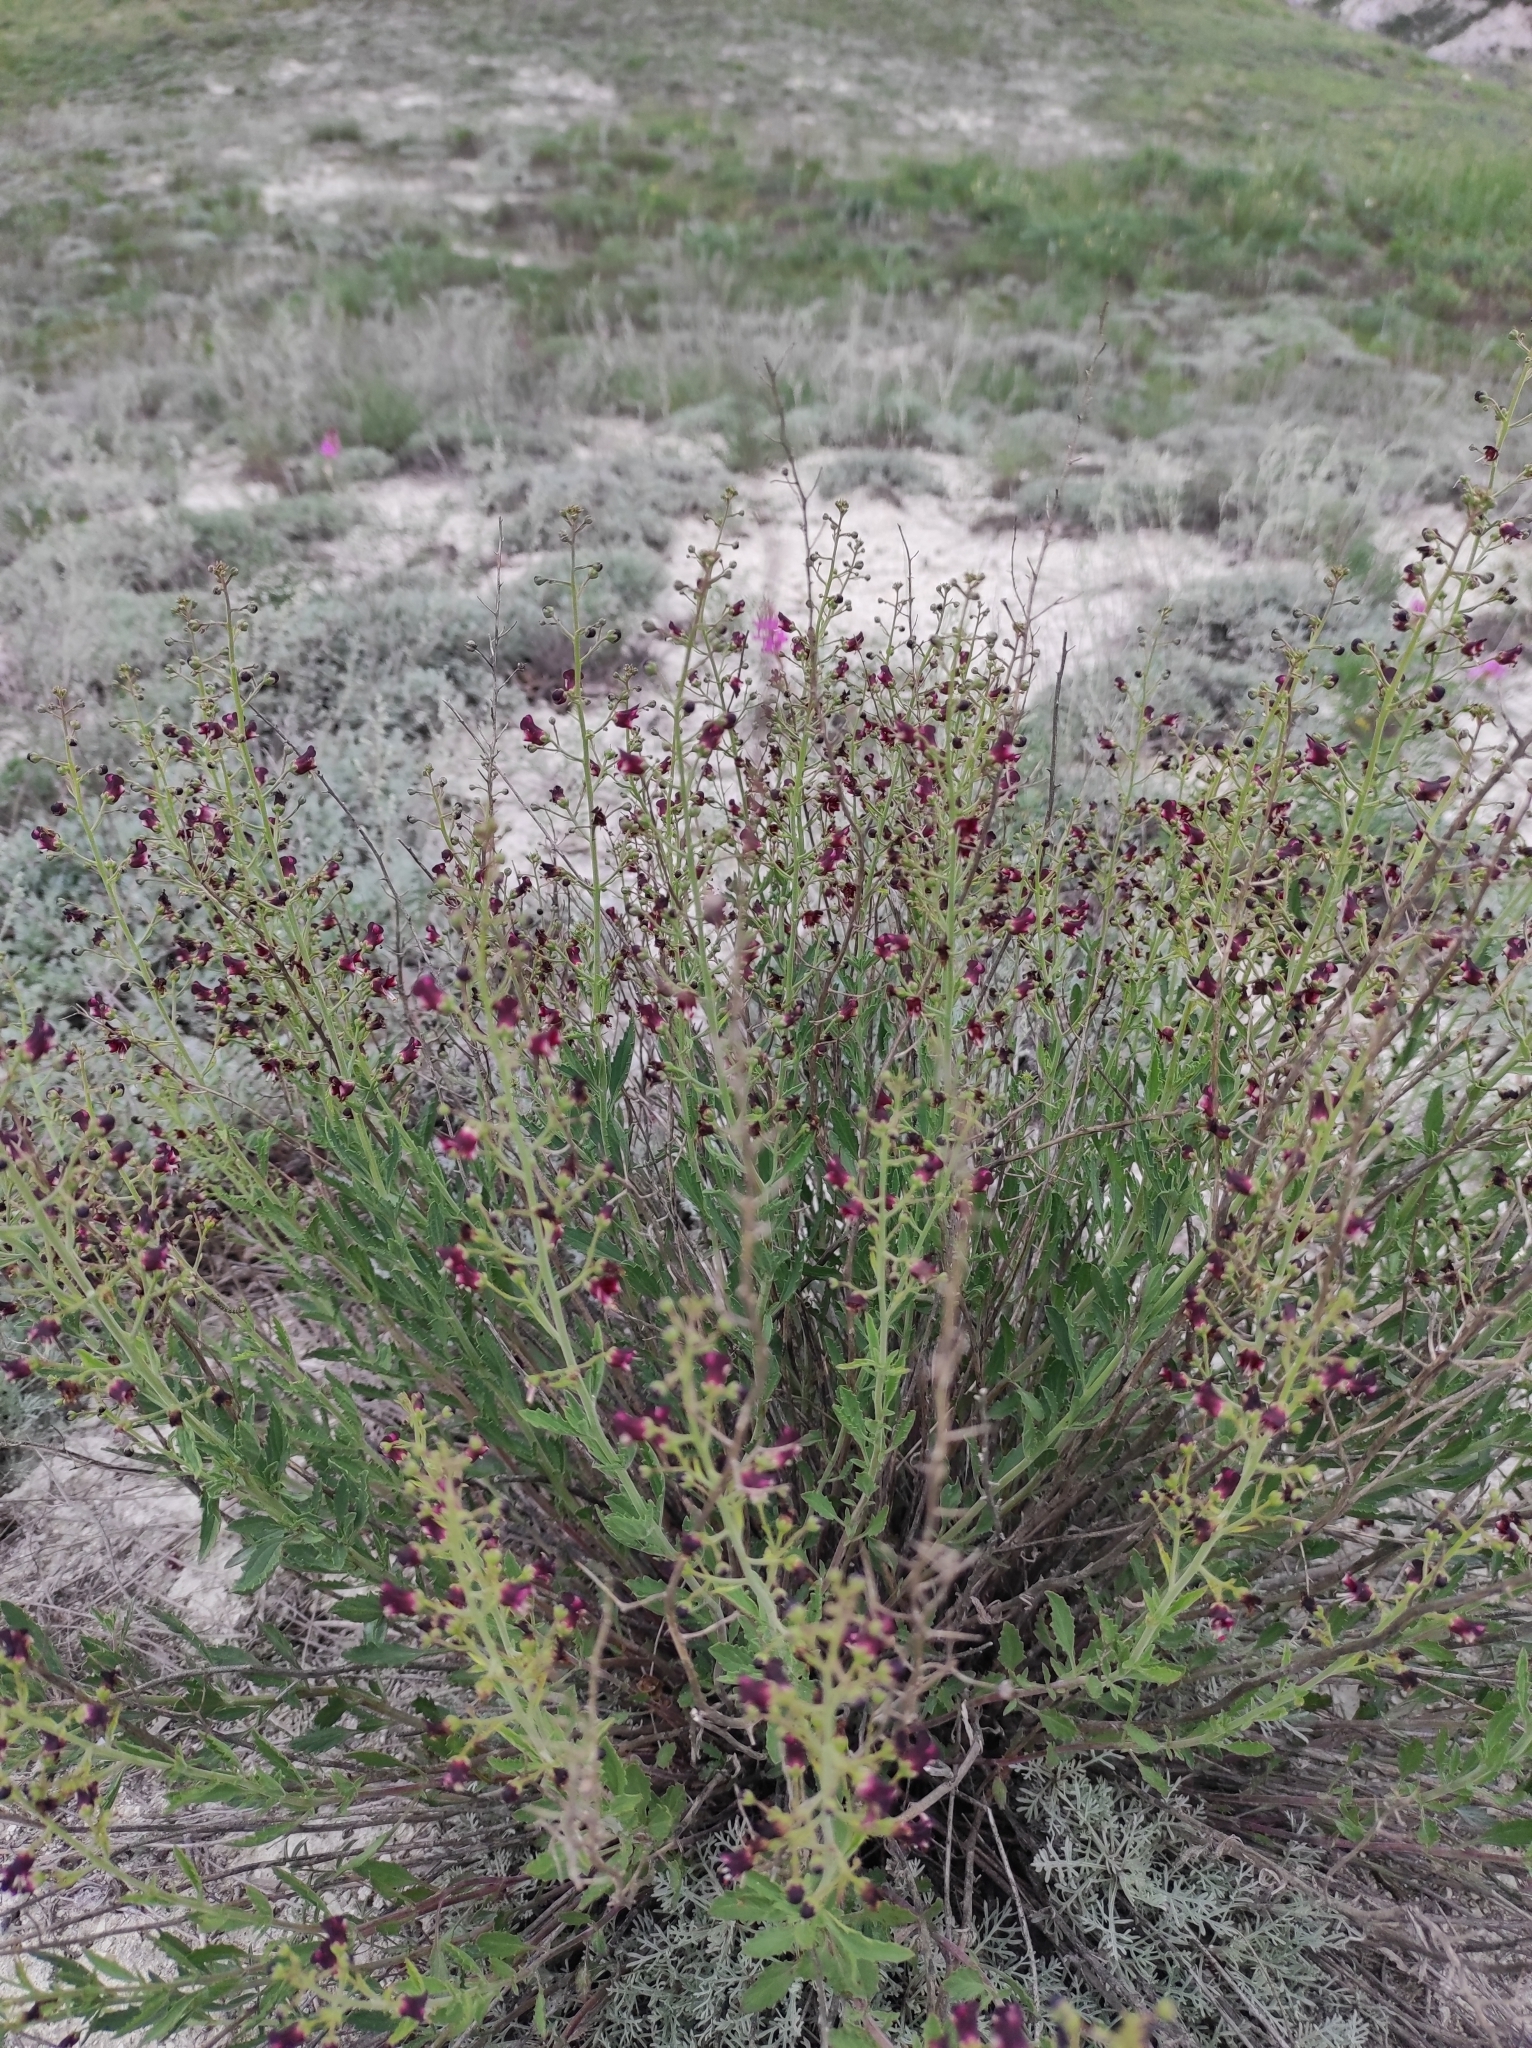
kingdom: Plantae
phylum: Tracheophyta
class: Magnoliopsida
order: Lamiales
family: Scrophulariaceae
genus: Scrophularia
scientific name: Scrophularia cretacea
